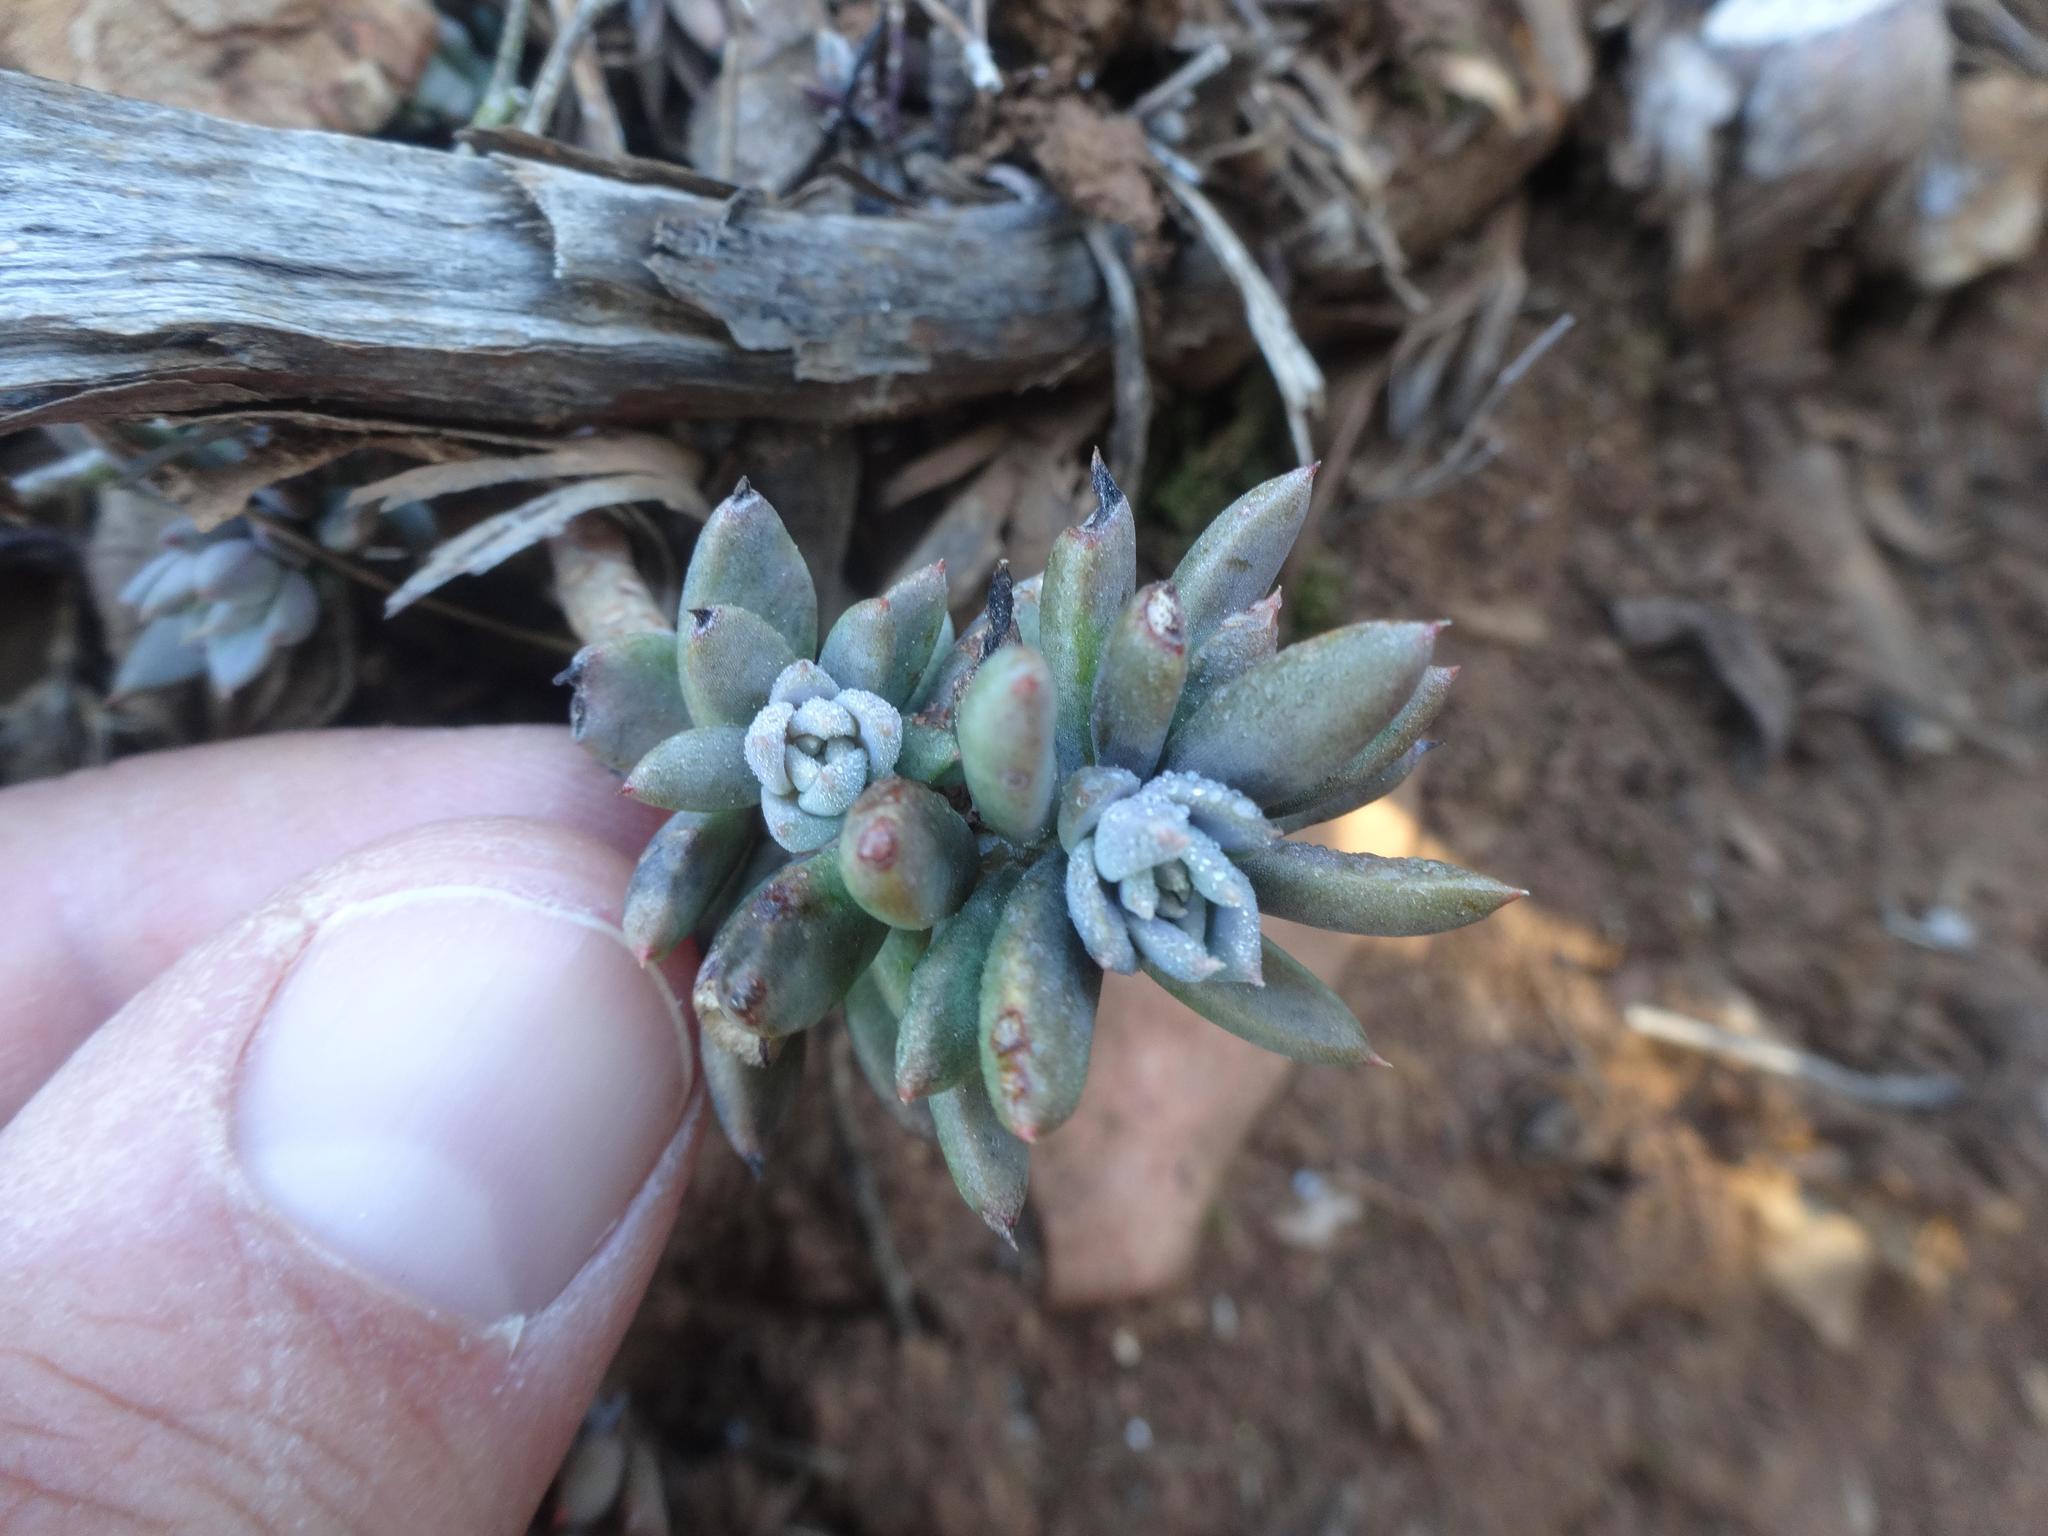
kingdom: Plantae
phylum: Tracheophyta
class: Magnoliopsida
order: Saxifragales
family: Crassulaceae
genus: Petrosedum
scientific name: Petrosedum sediforme
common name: Pale stonecrop
